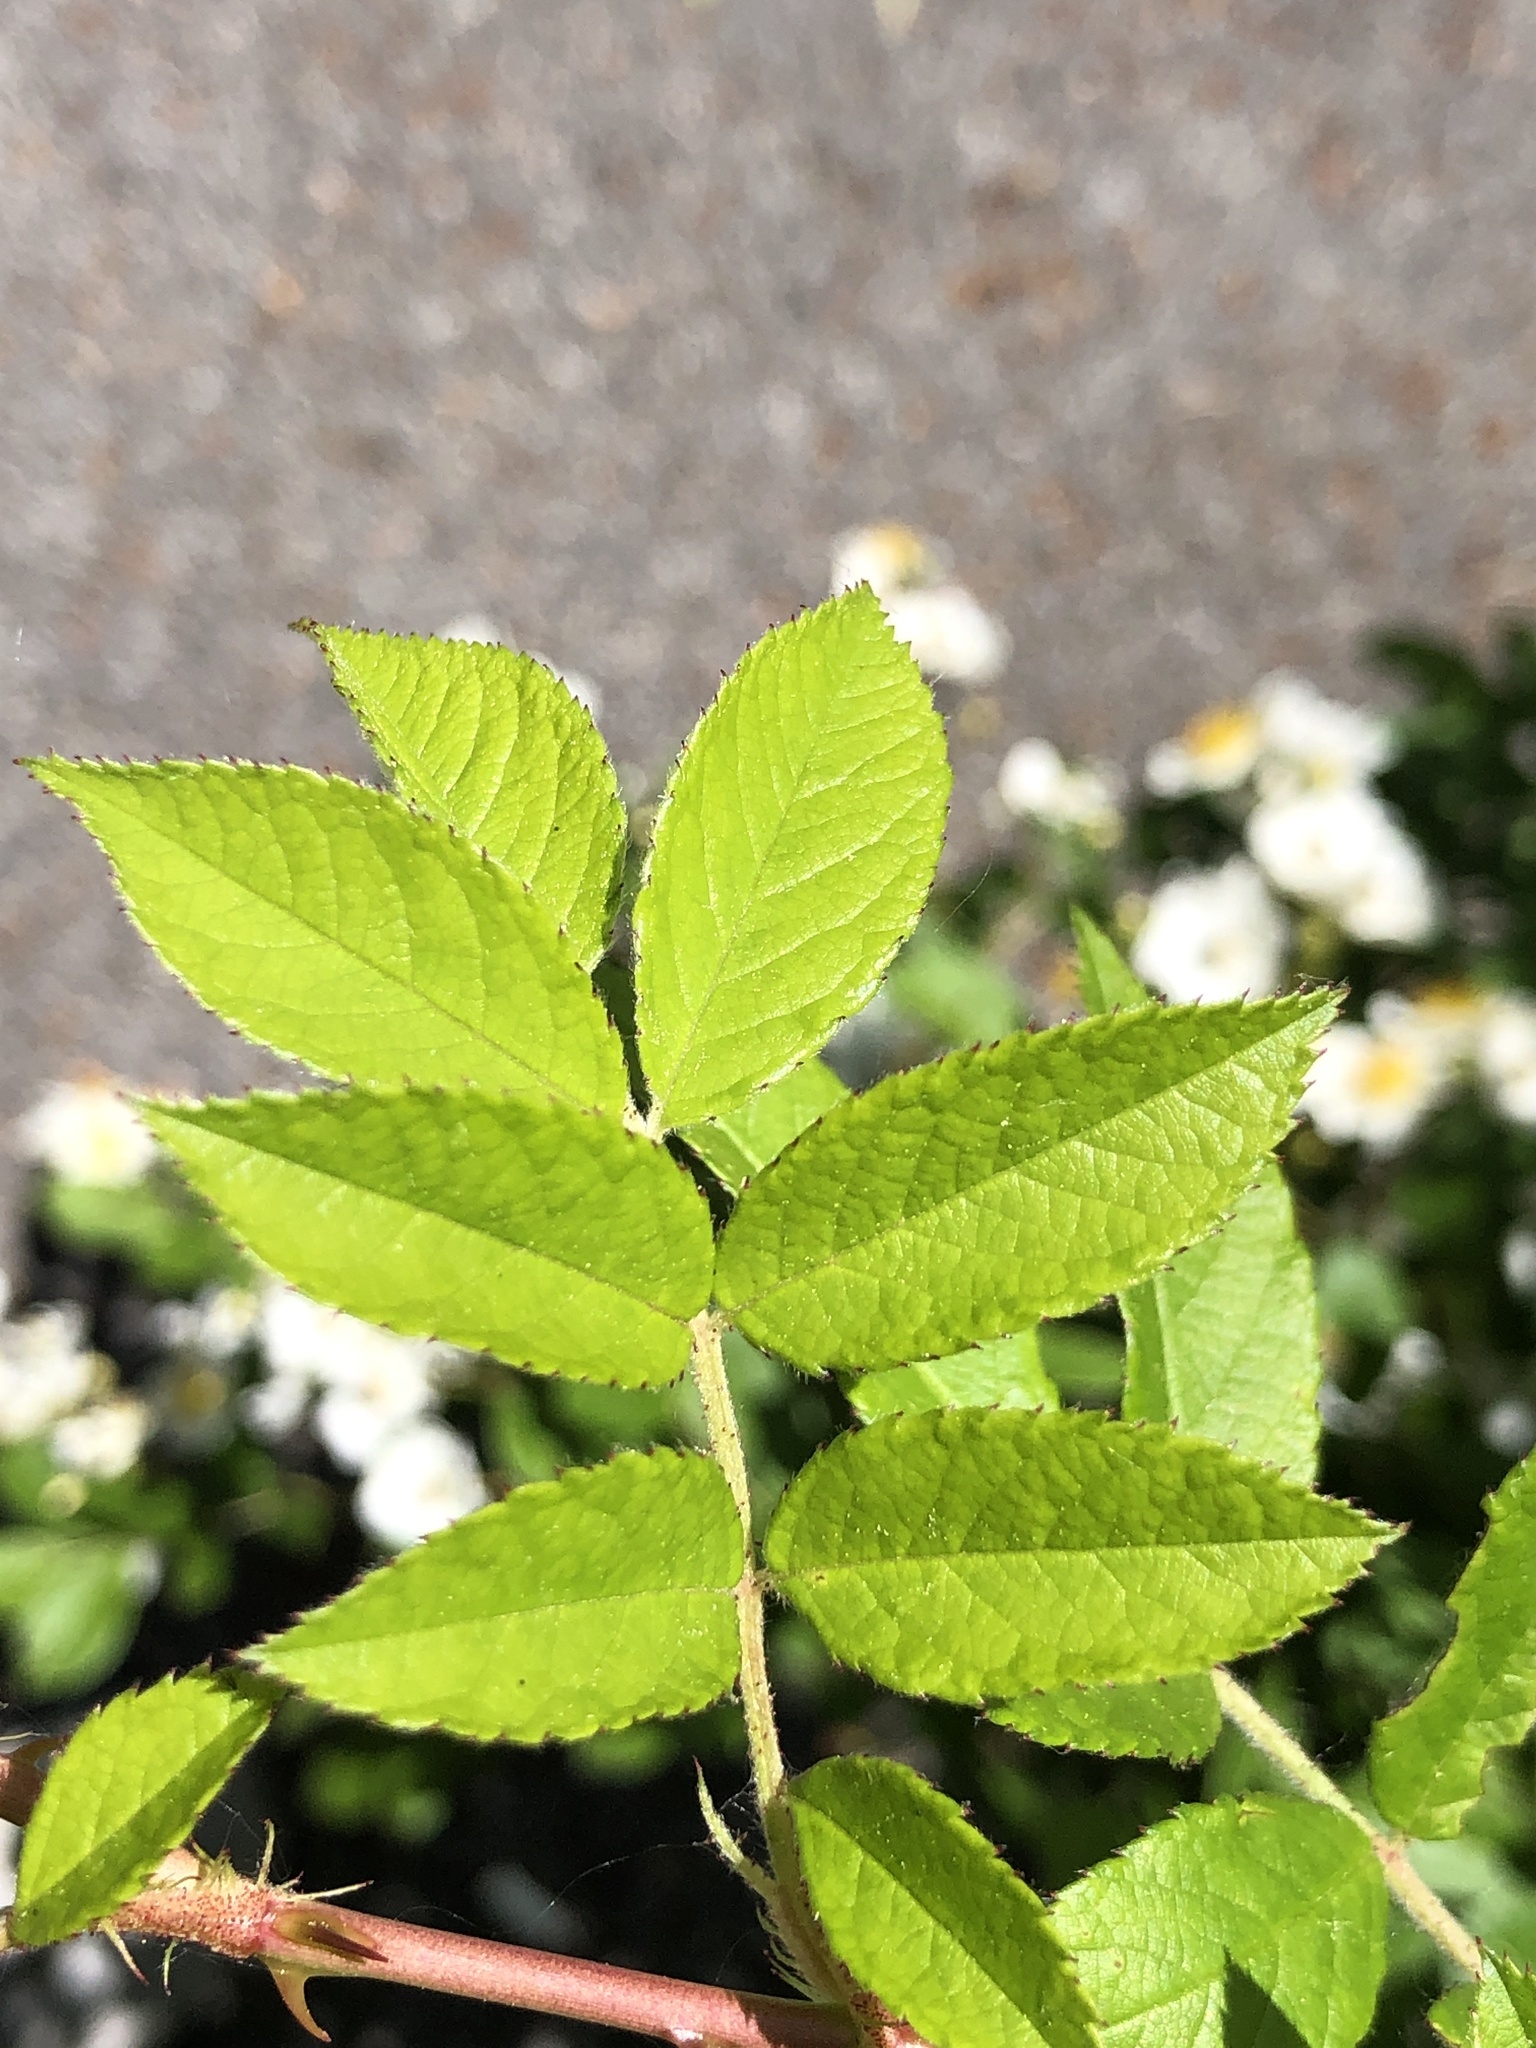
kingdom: Plantae
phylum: Tracheophyta
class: Magnoliopsida
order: Rosales
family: Rosaceae
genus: Rosa
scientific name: Rosa multiflora
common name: Multiflora rose
